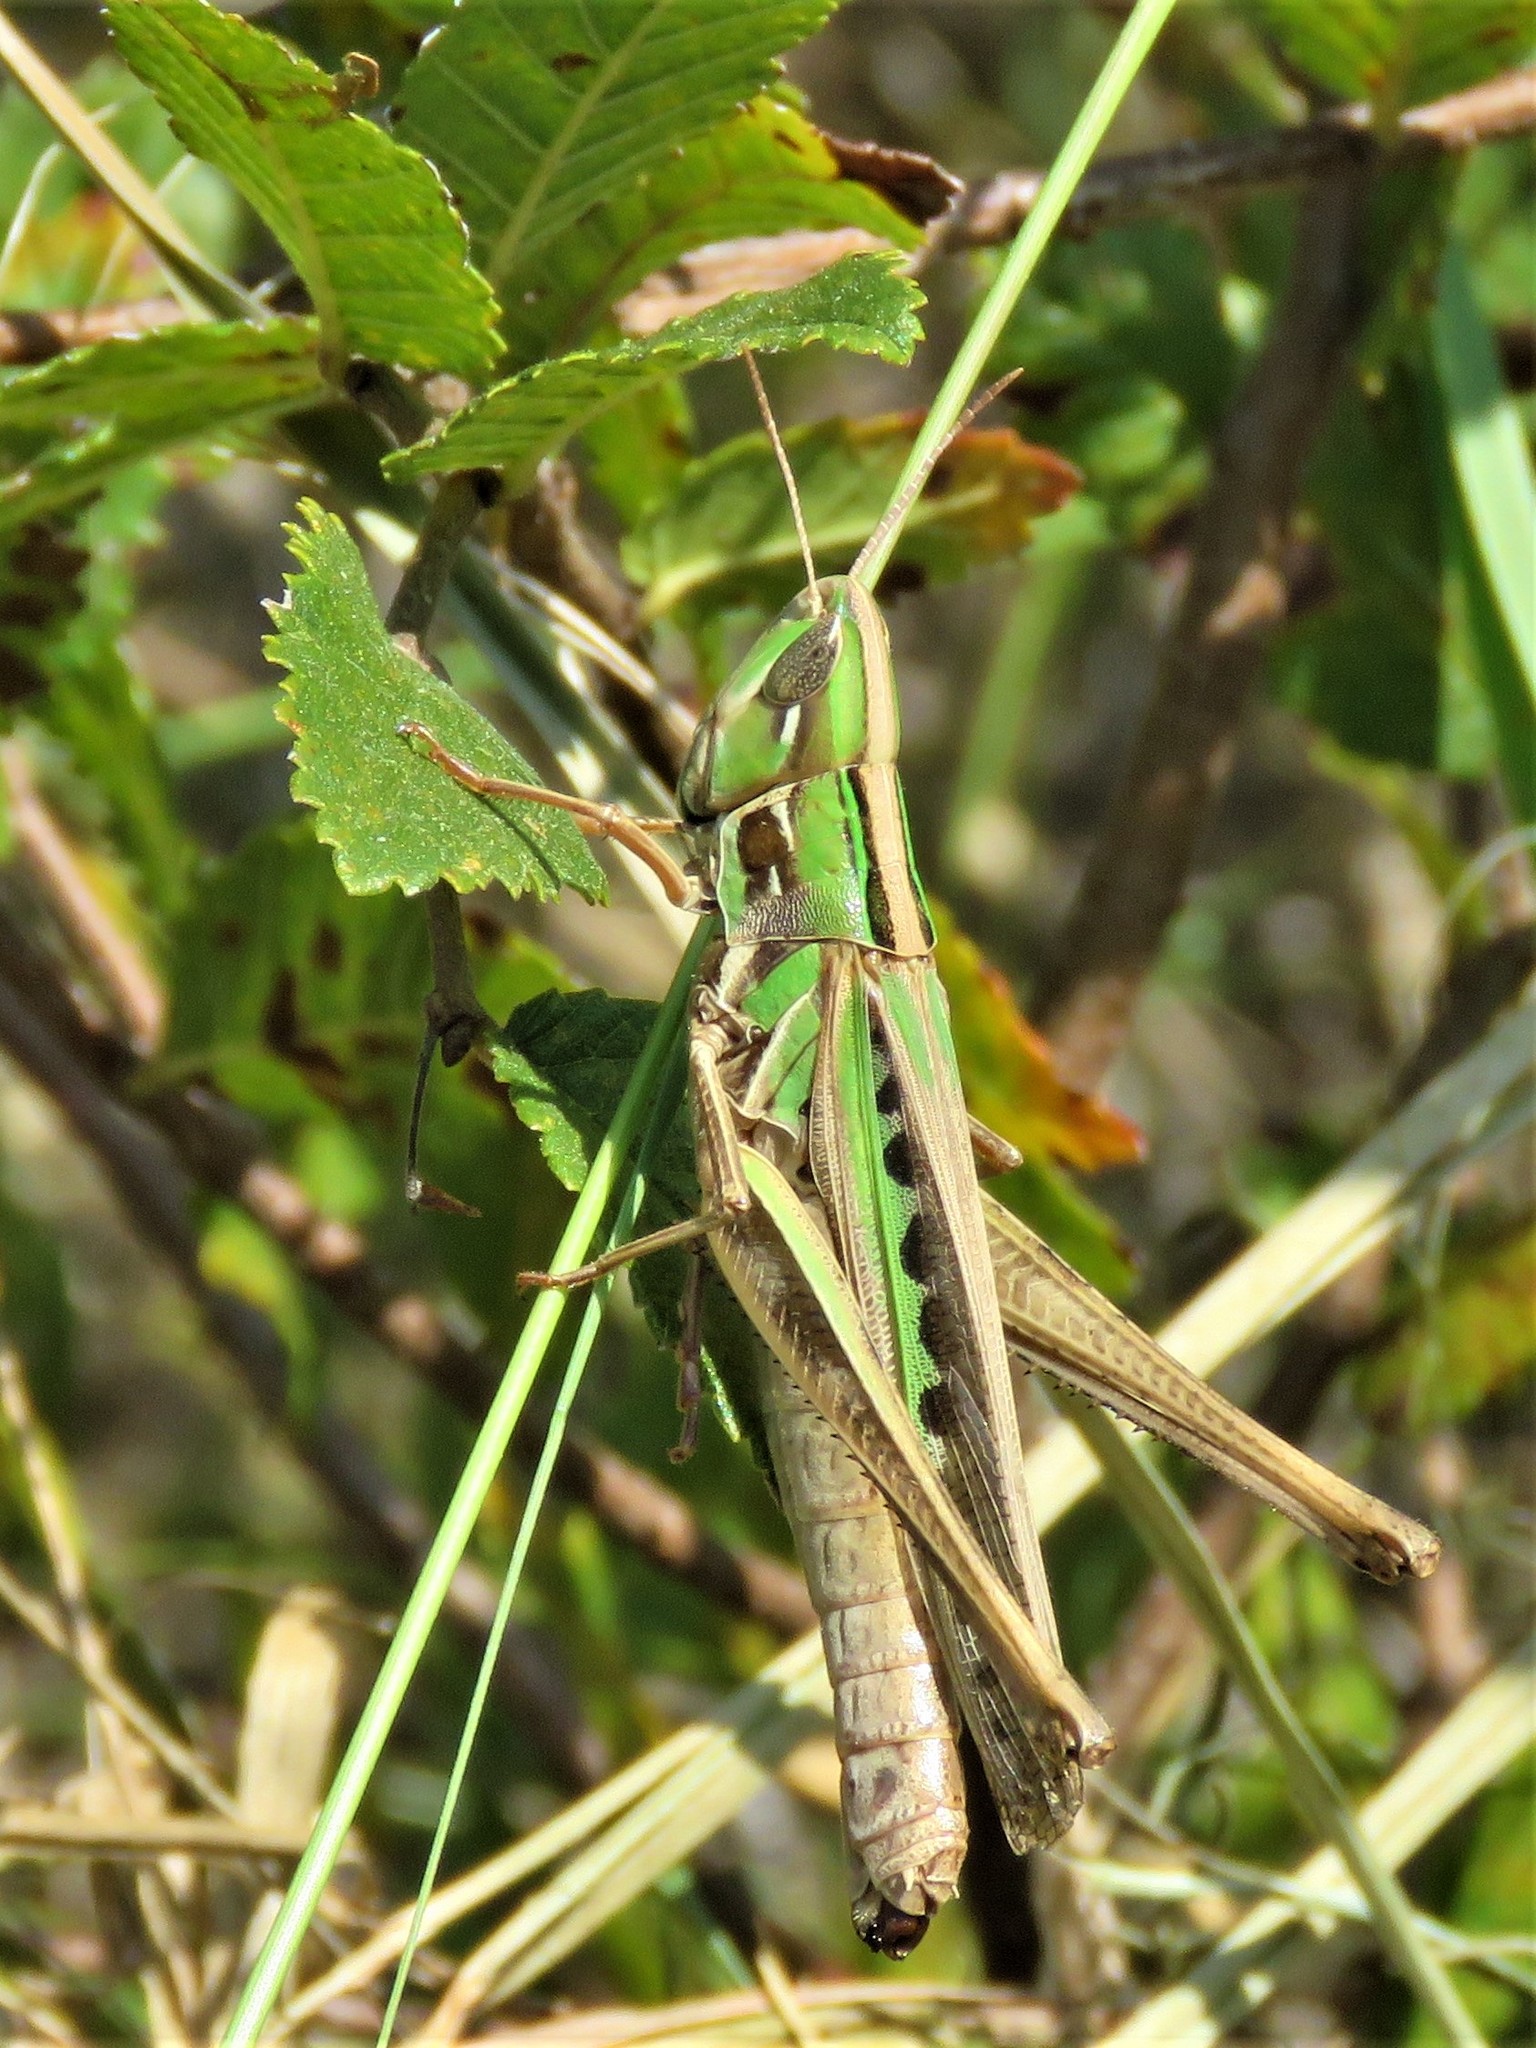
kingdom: Animalia
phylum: Arthropoda
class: Insecta
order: Orthoptera
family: Acrididae
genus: Syrbula
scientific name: Syrbula admirabilis
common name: Handsome grasshopper
